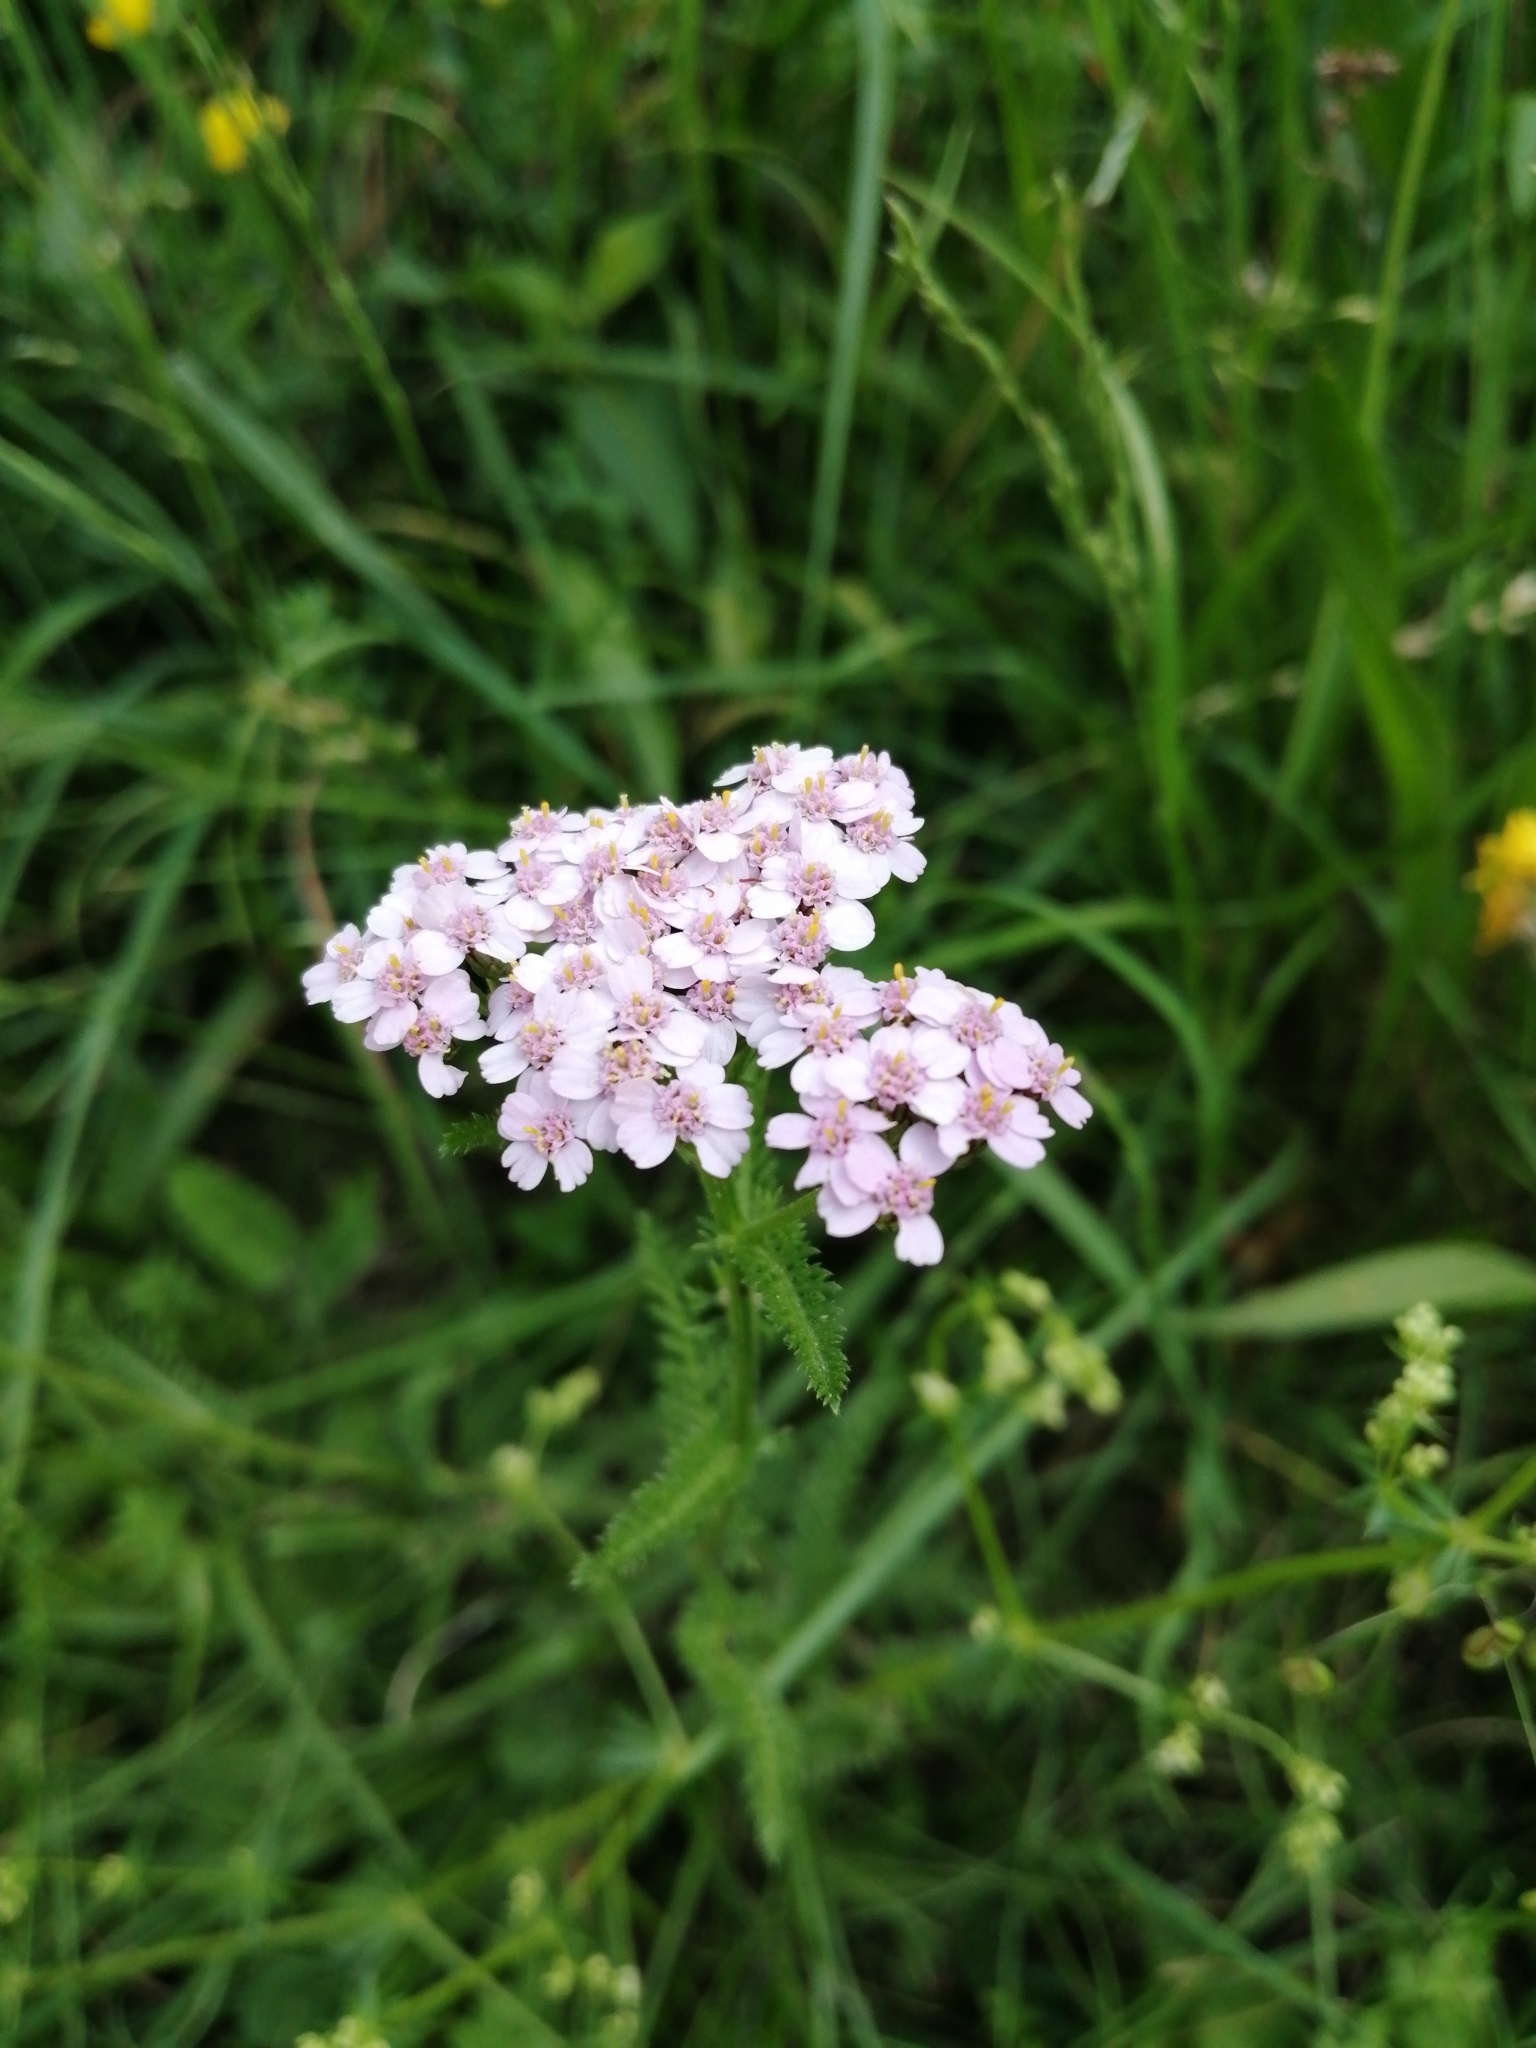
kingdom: Plantae
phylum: Tracheophyta
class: Magnoliopsida
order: Asterales
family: Asteraceae
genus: Achillea
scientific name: Achillea millefolium
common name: Yarrow
